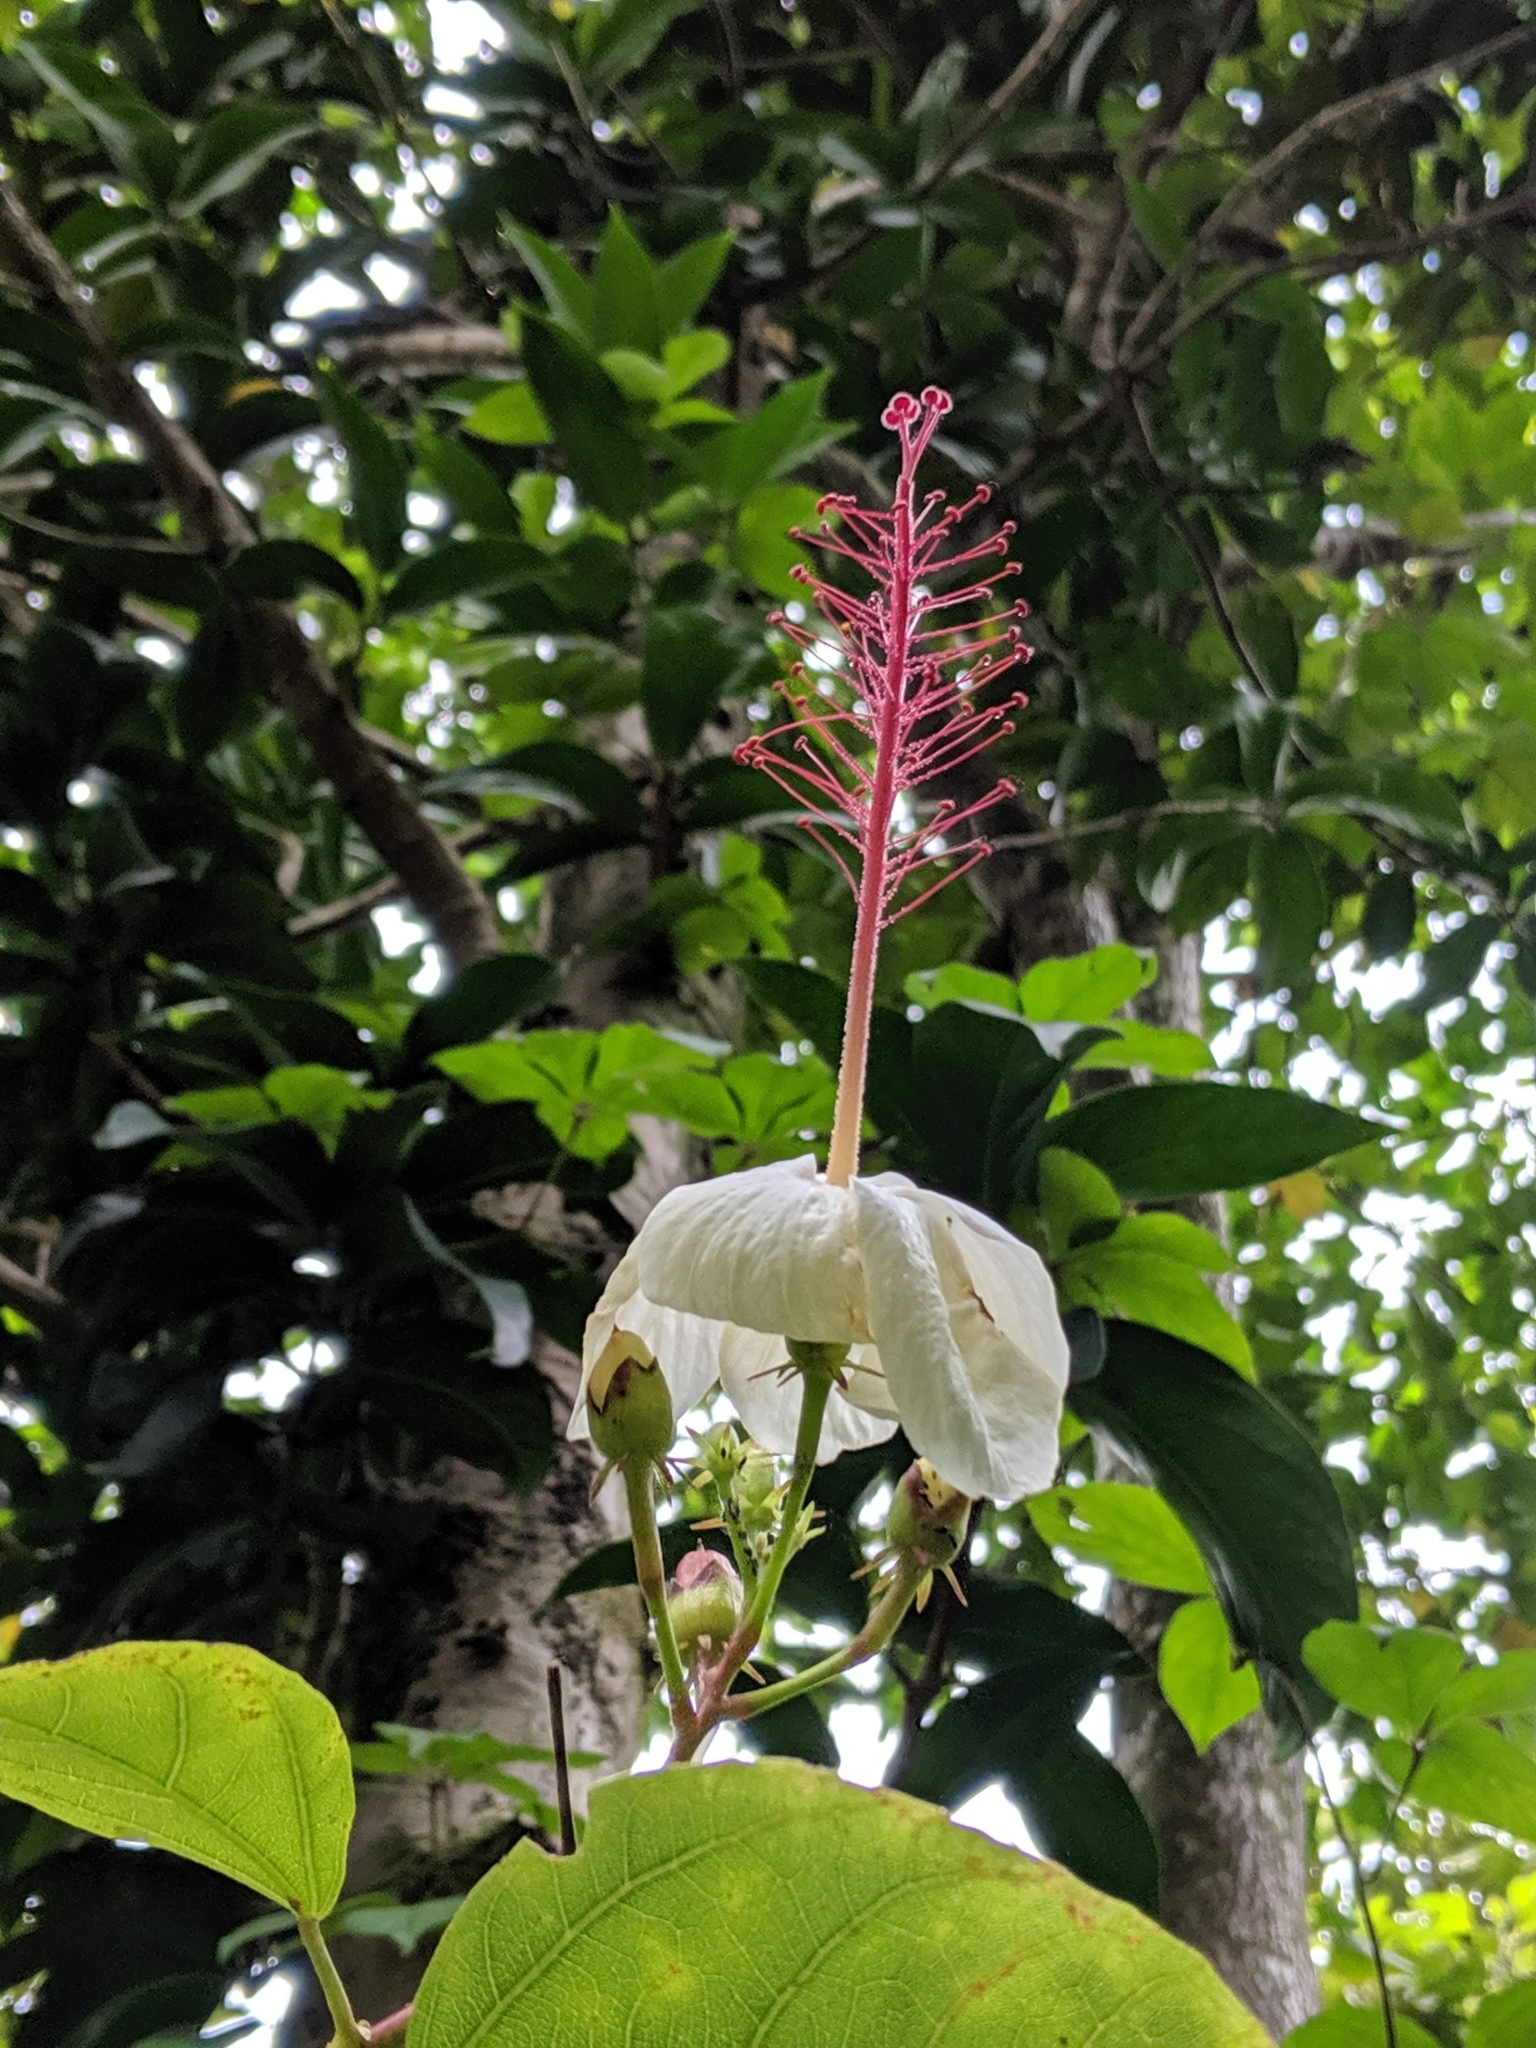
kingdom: Plantae
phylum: Tracheophyta
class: Magnoliopsida
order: Malvales
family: Malvaceae
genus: Hibiscus
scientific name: Hibiscus waimeae
